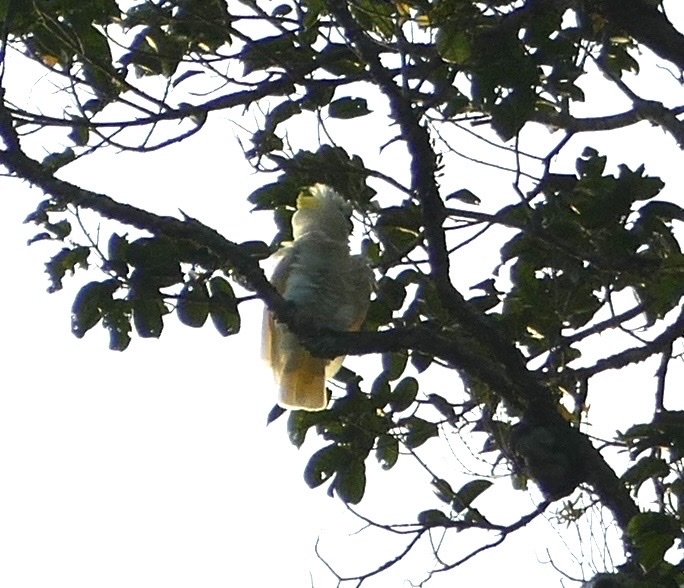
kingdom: Animalia
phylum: Chordata
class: Aves
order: Psittaciformes
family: Psittacidae
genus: Cacatua
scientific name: Cacatua galerita
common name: Sulphur-crested cockatoo
